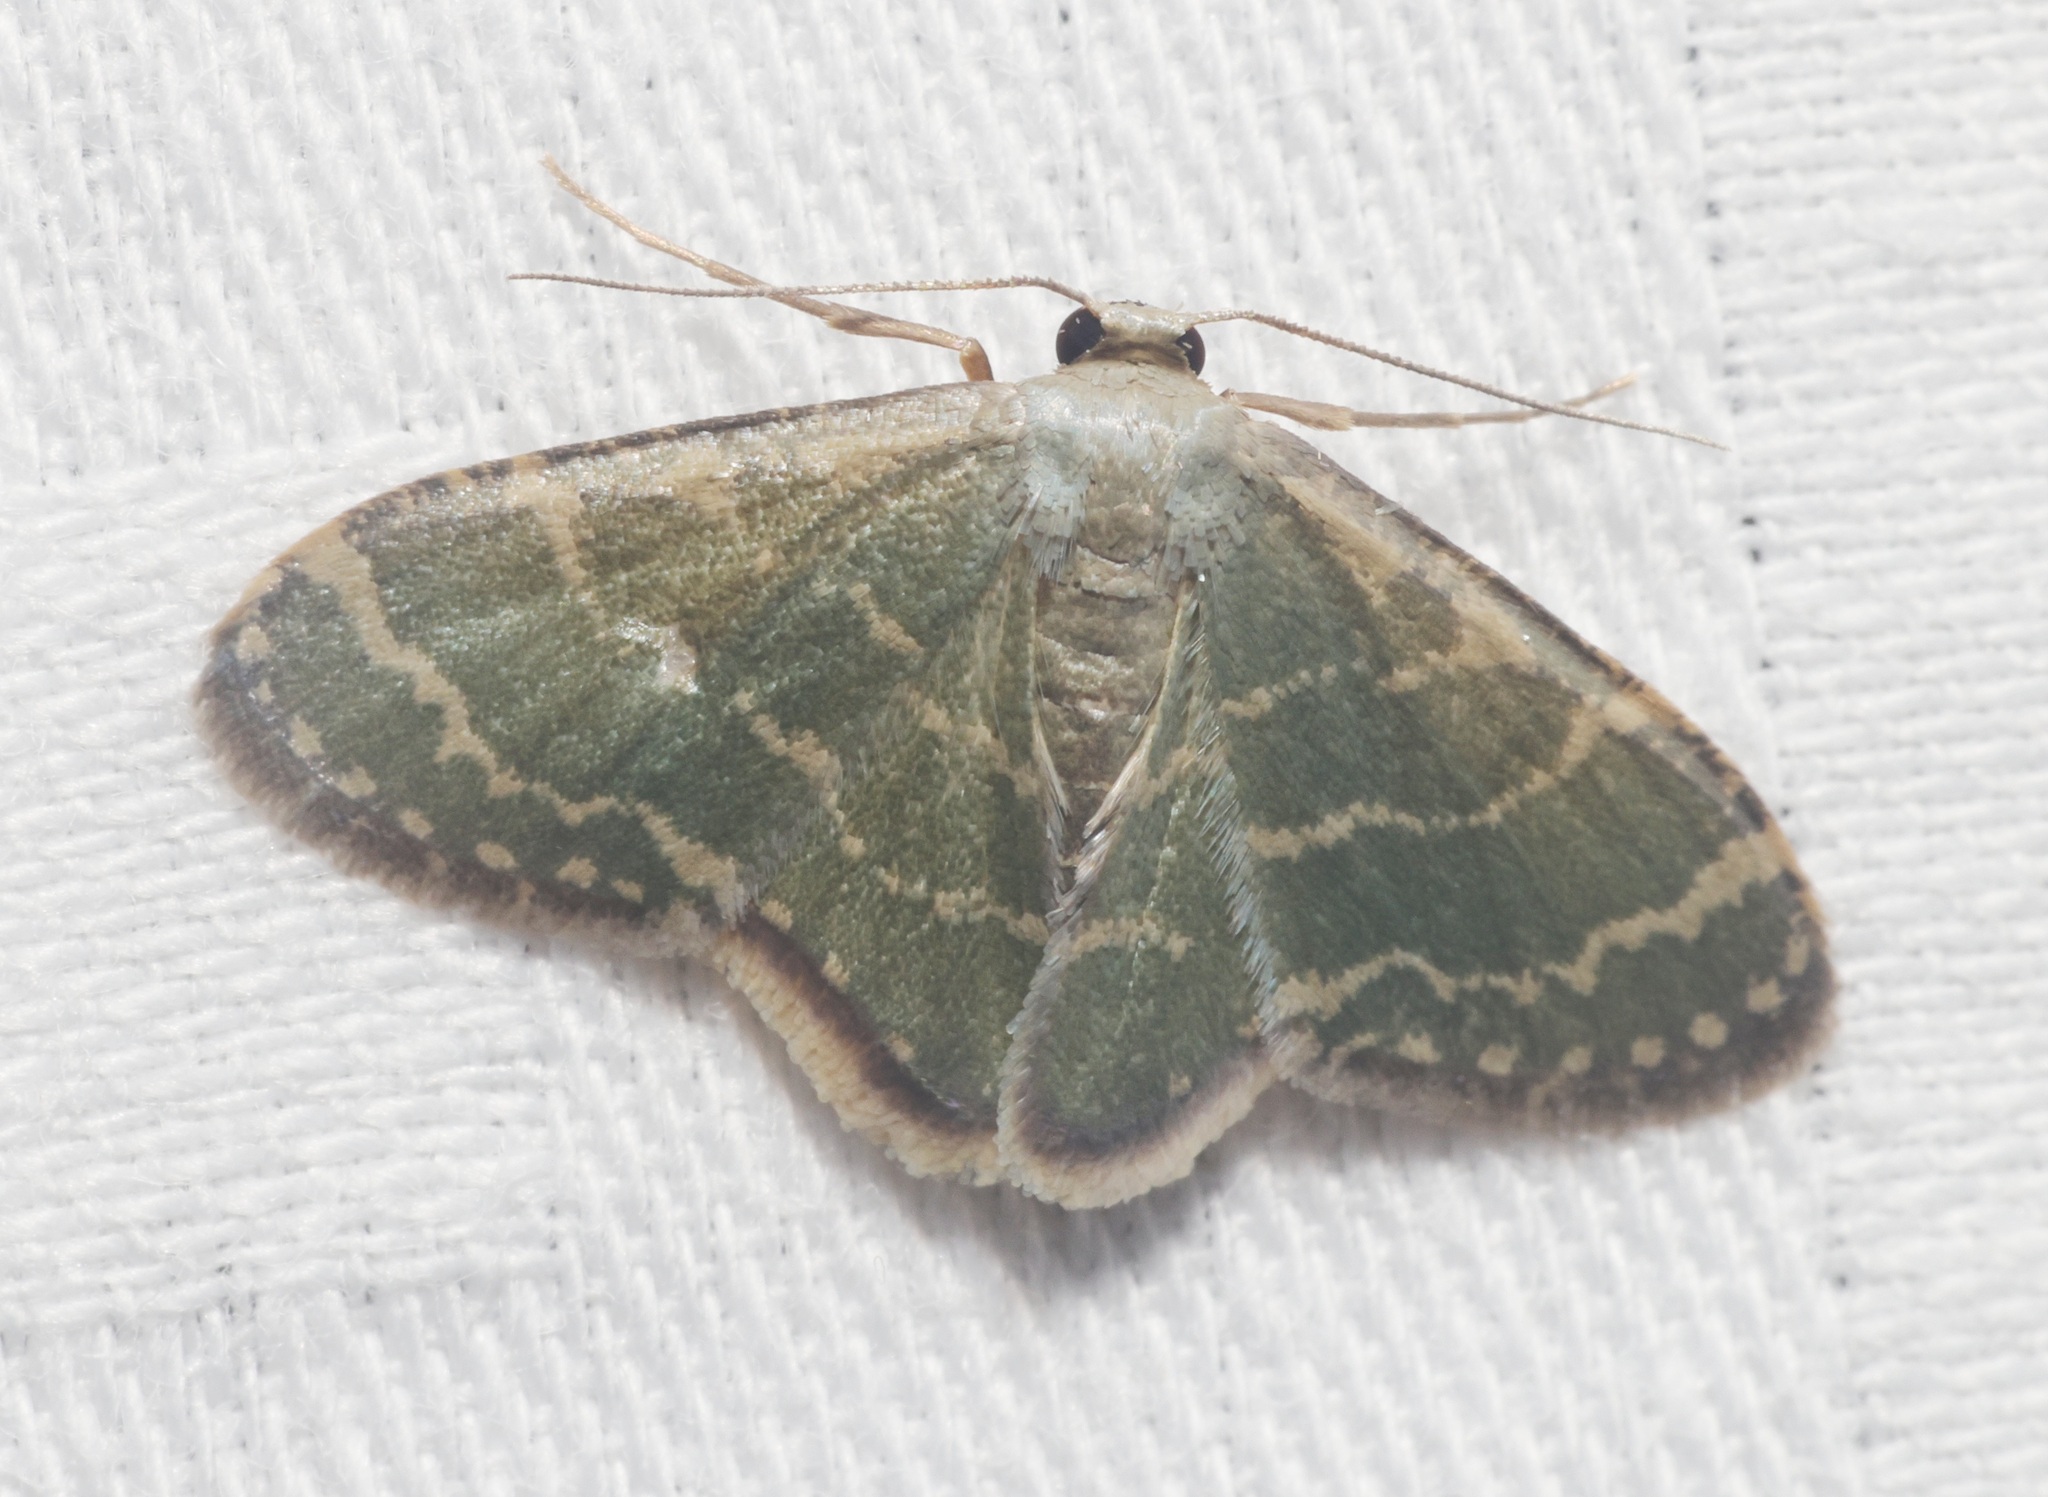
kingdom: Animalia
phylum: Arthropoda
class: Insecta
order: Lepidoptera
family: Geometridae
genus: Lophophleps
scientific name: Lophophleps triangularis
